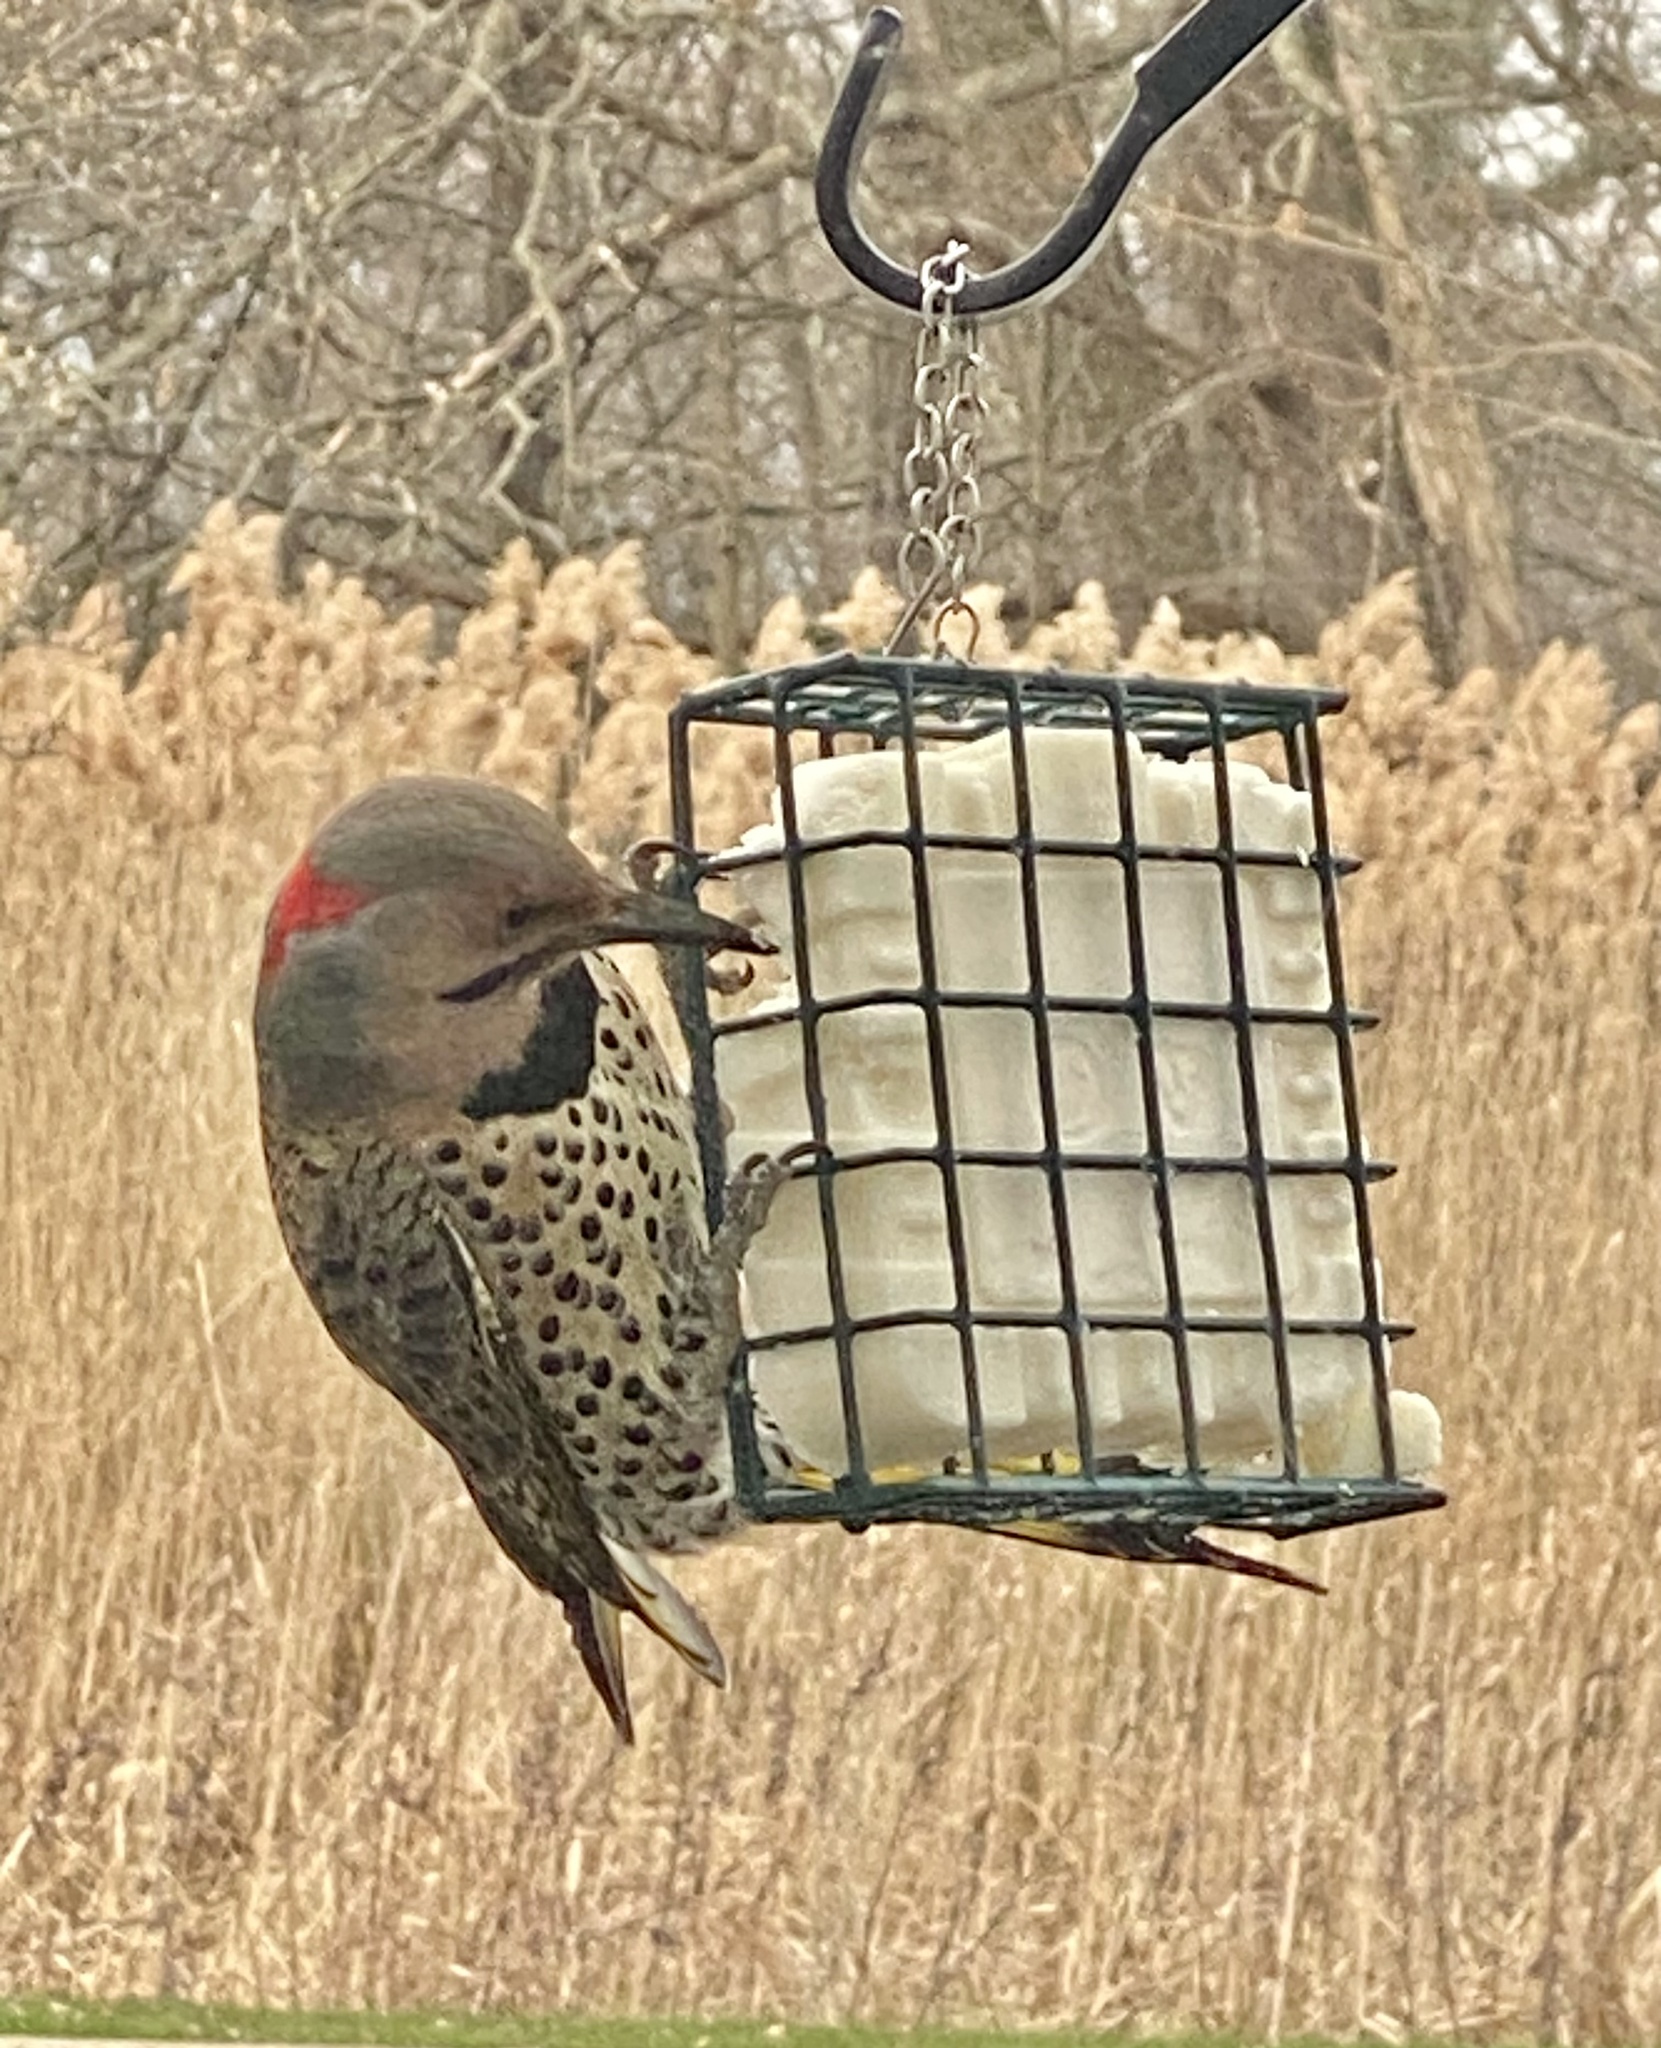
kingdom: Animalia
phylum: Chordata
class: Aves
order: Piciformes
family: Picidae
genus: Colaptes
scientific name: Colaptes auratus
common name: Northern flicker
